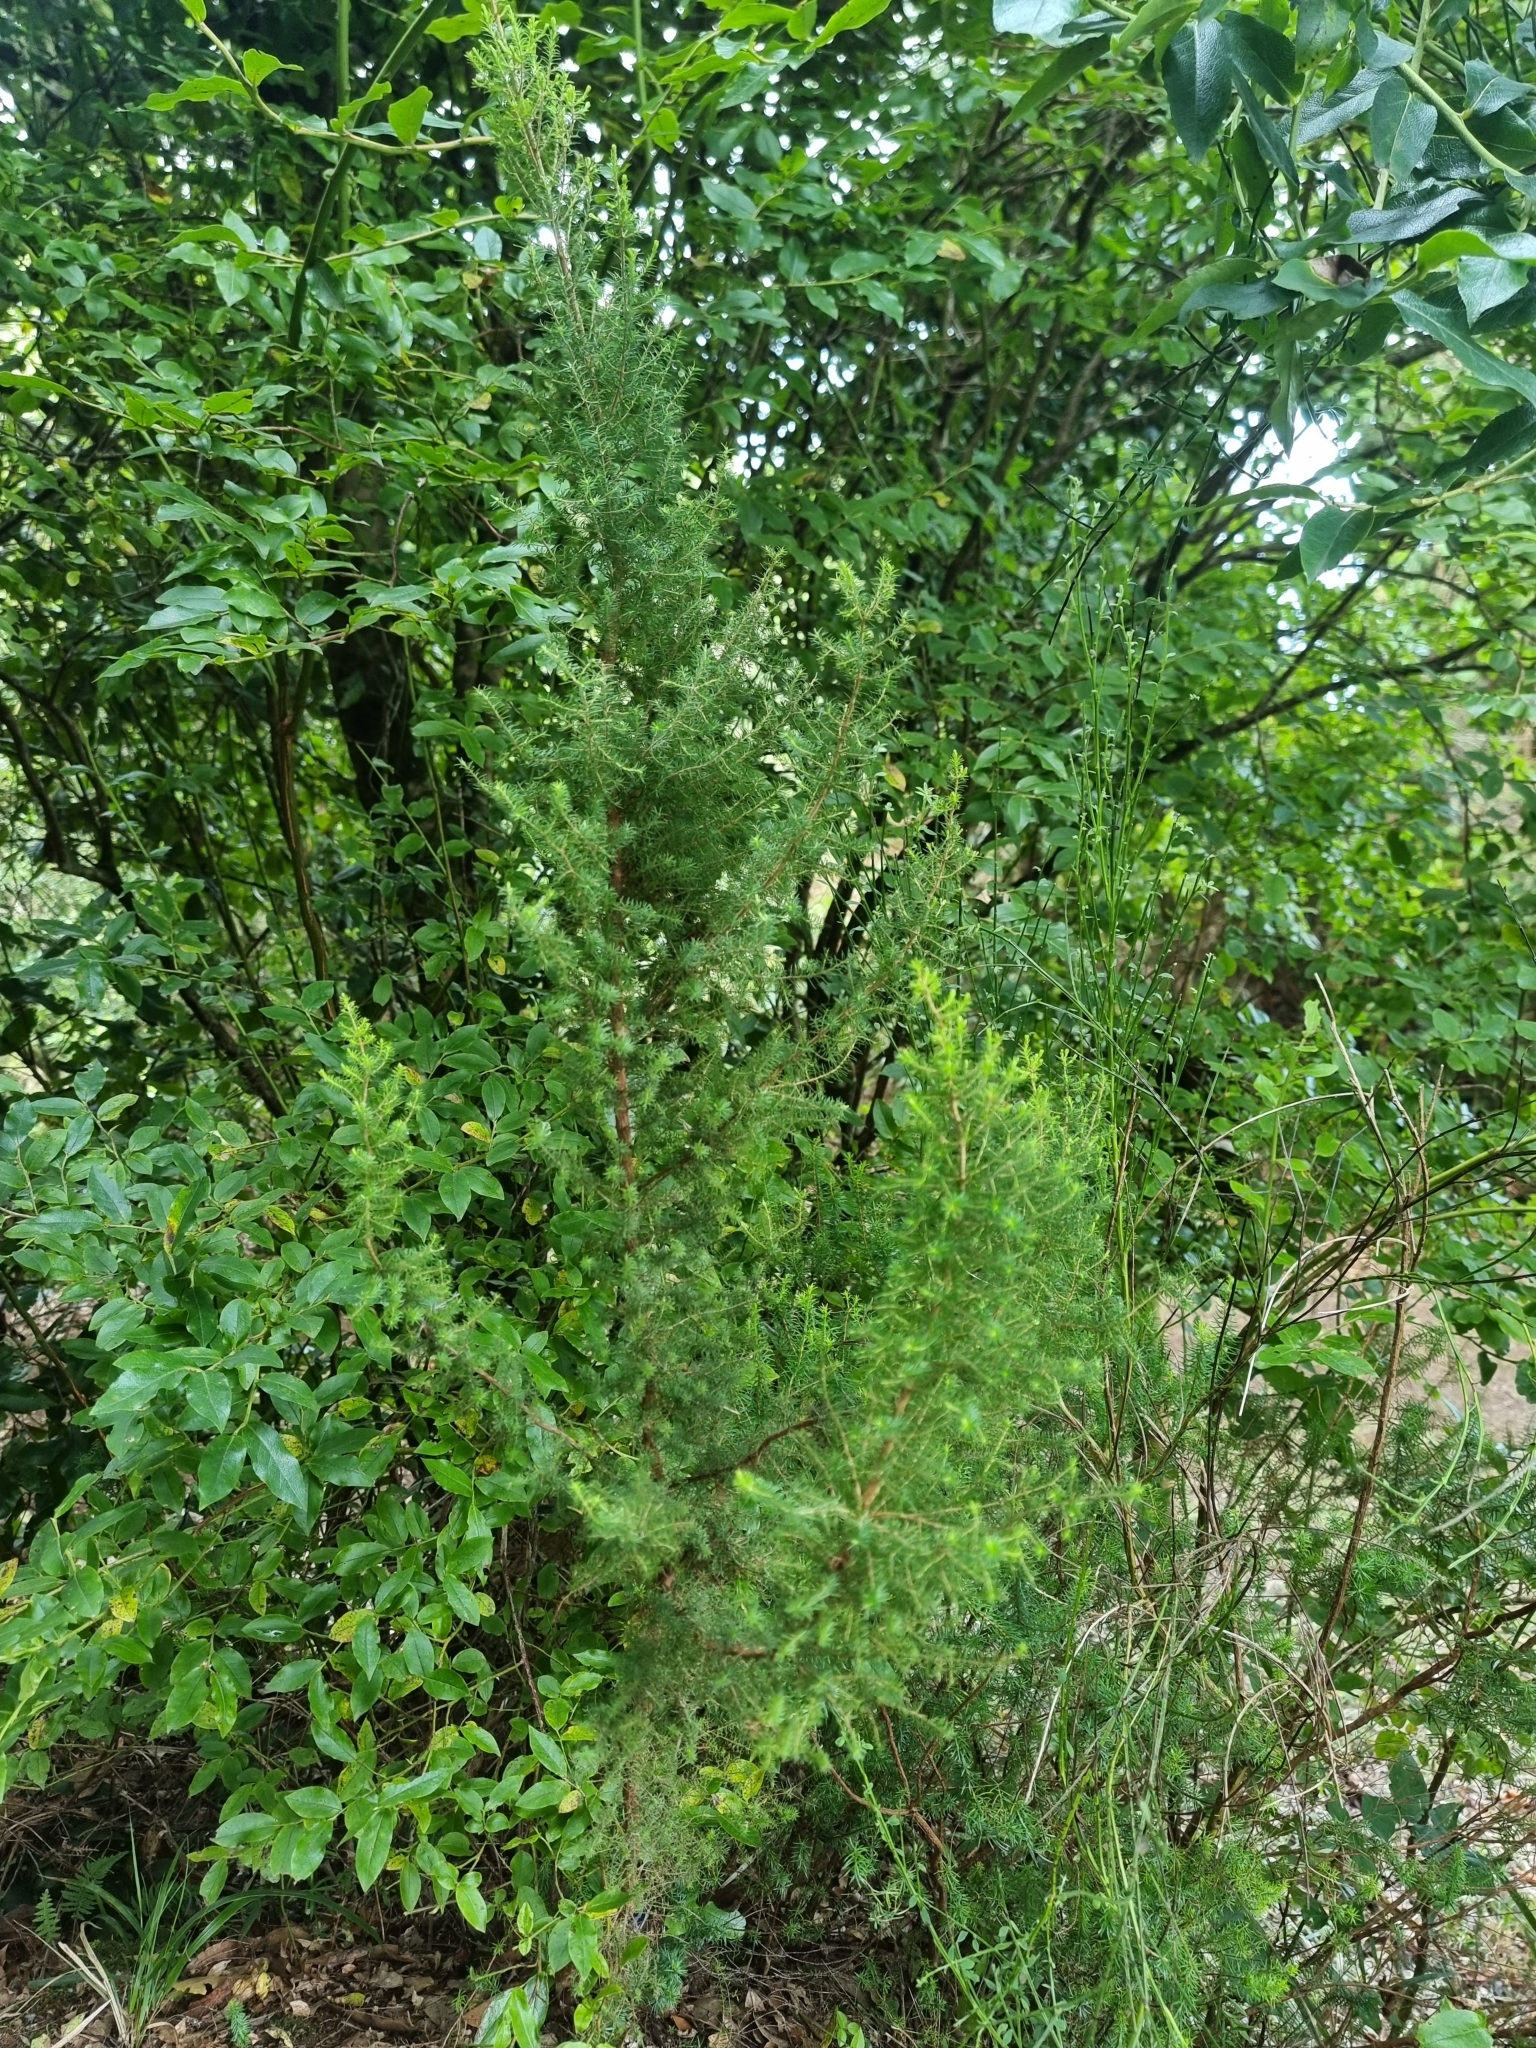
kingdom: Plantae
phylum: Tracheophyta
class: Magnoliopsida
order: Ericales
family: Ericaceae
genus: Erica
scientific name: Erica canariensis
